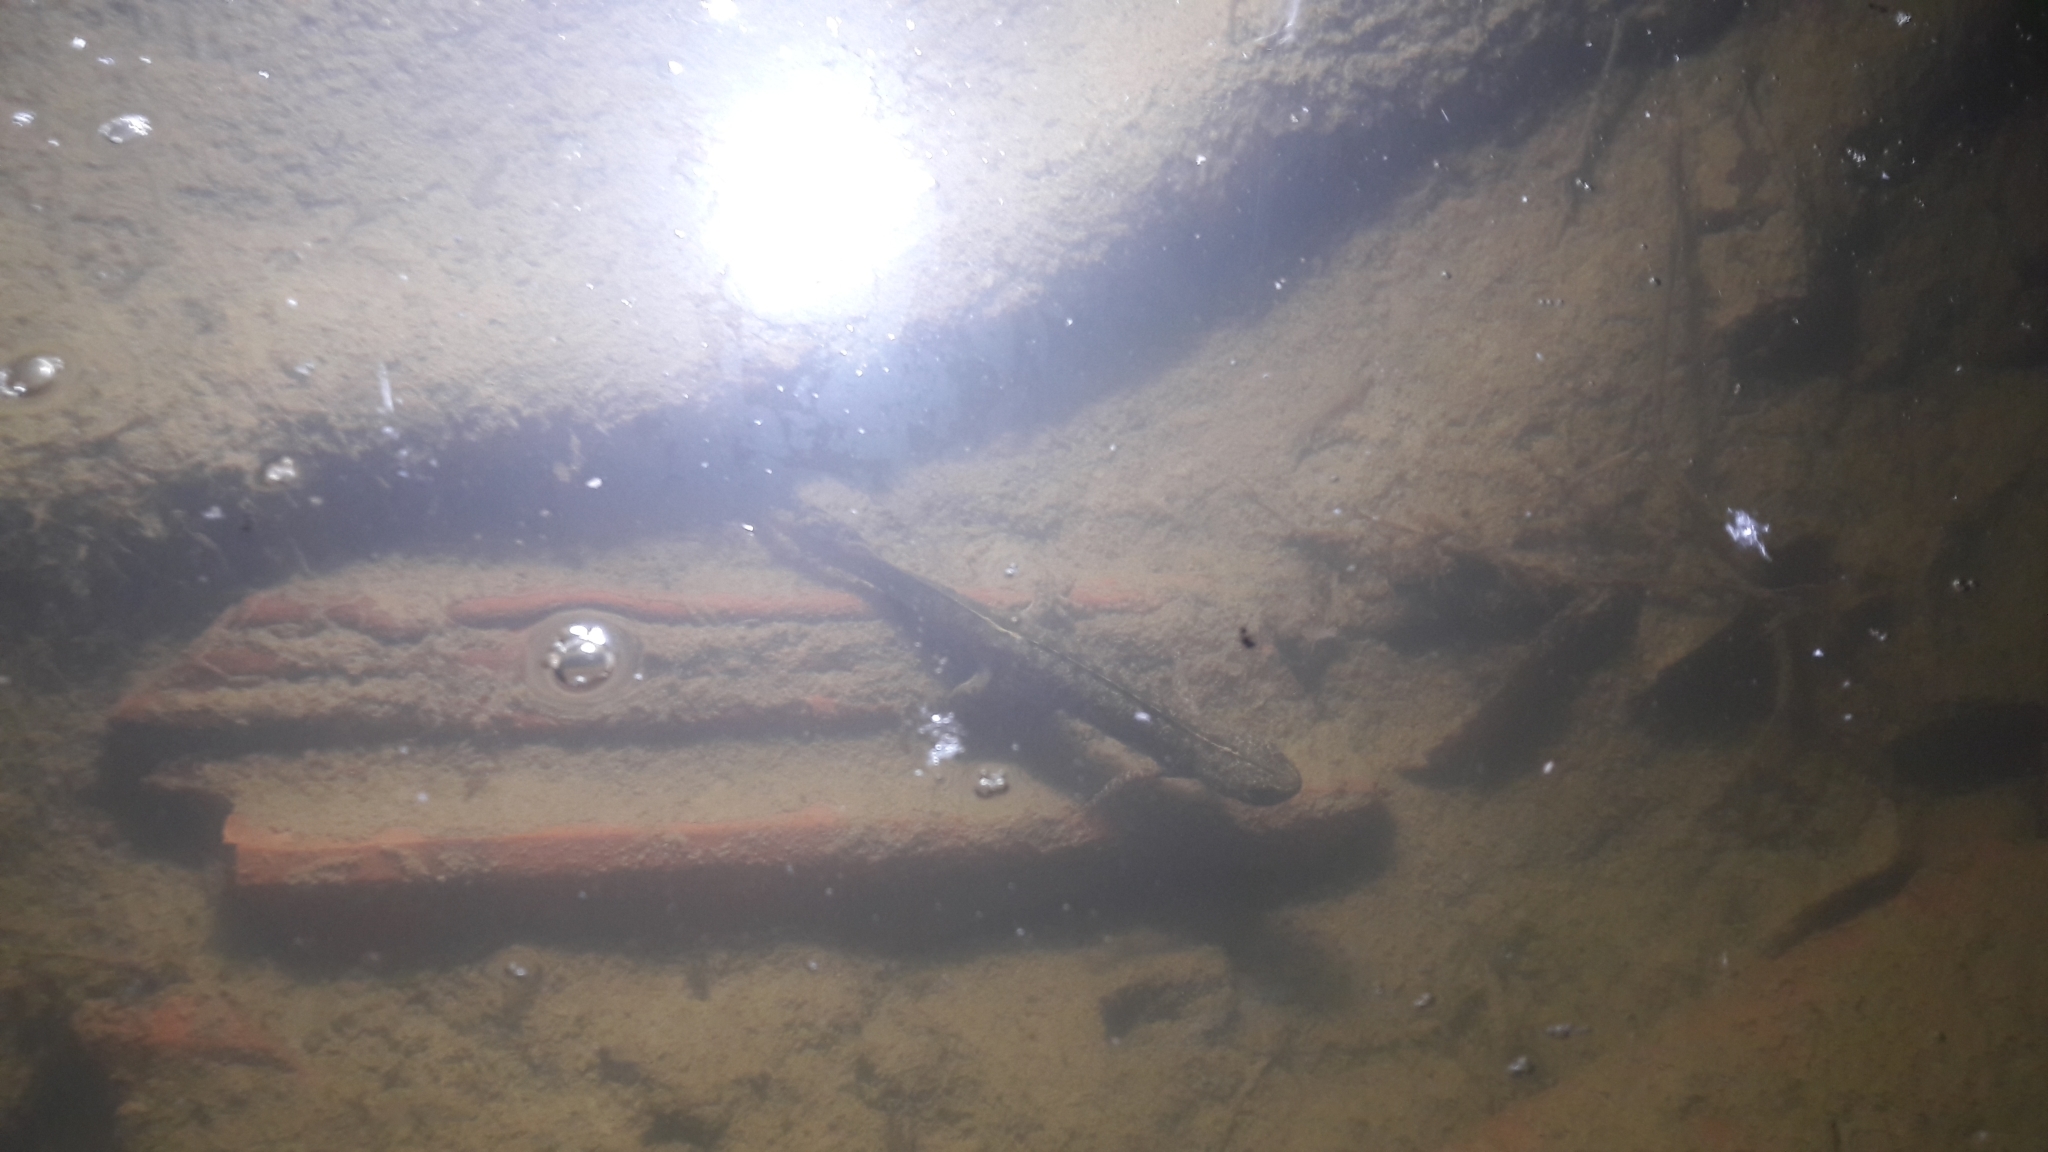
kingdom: Animalia
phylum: Chordata
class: Amphibia
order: Caudata
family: Salamandridae
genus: Triturus
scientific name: Triturus carnifex
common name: Italian crested newt
